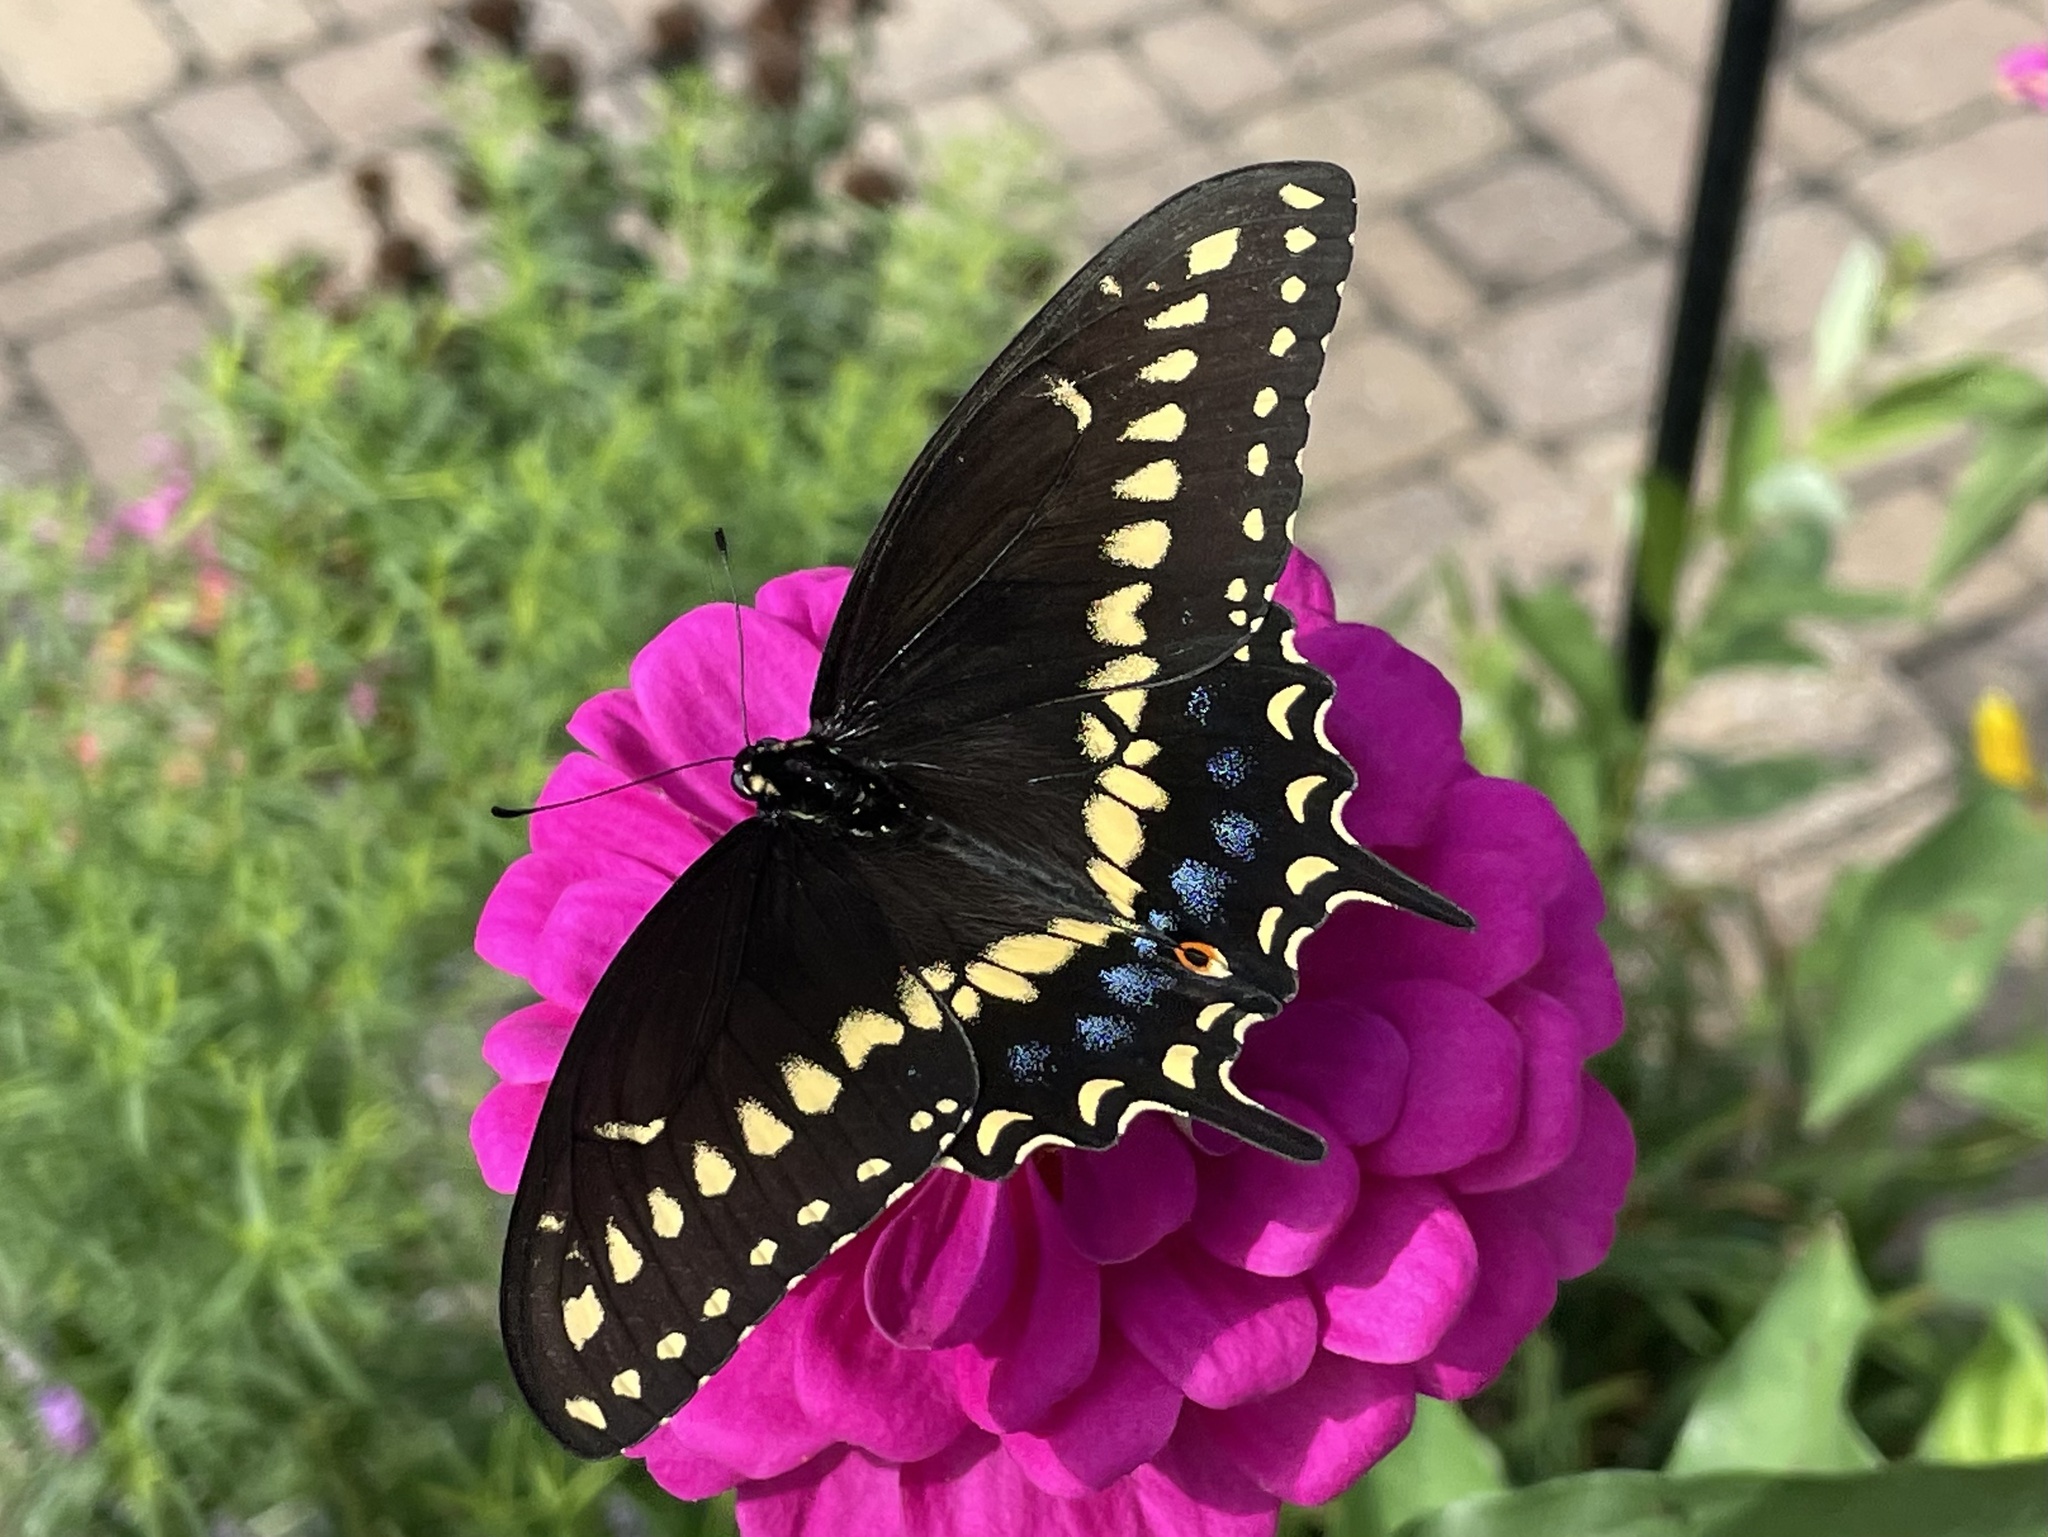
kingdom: Animalia
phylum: Arthropoda
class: Insecta
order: Lepidoptera
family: Papilionidae
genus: Papilio
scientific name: Papilio polyxenes
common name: Black swallowtail
